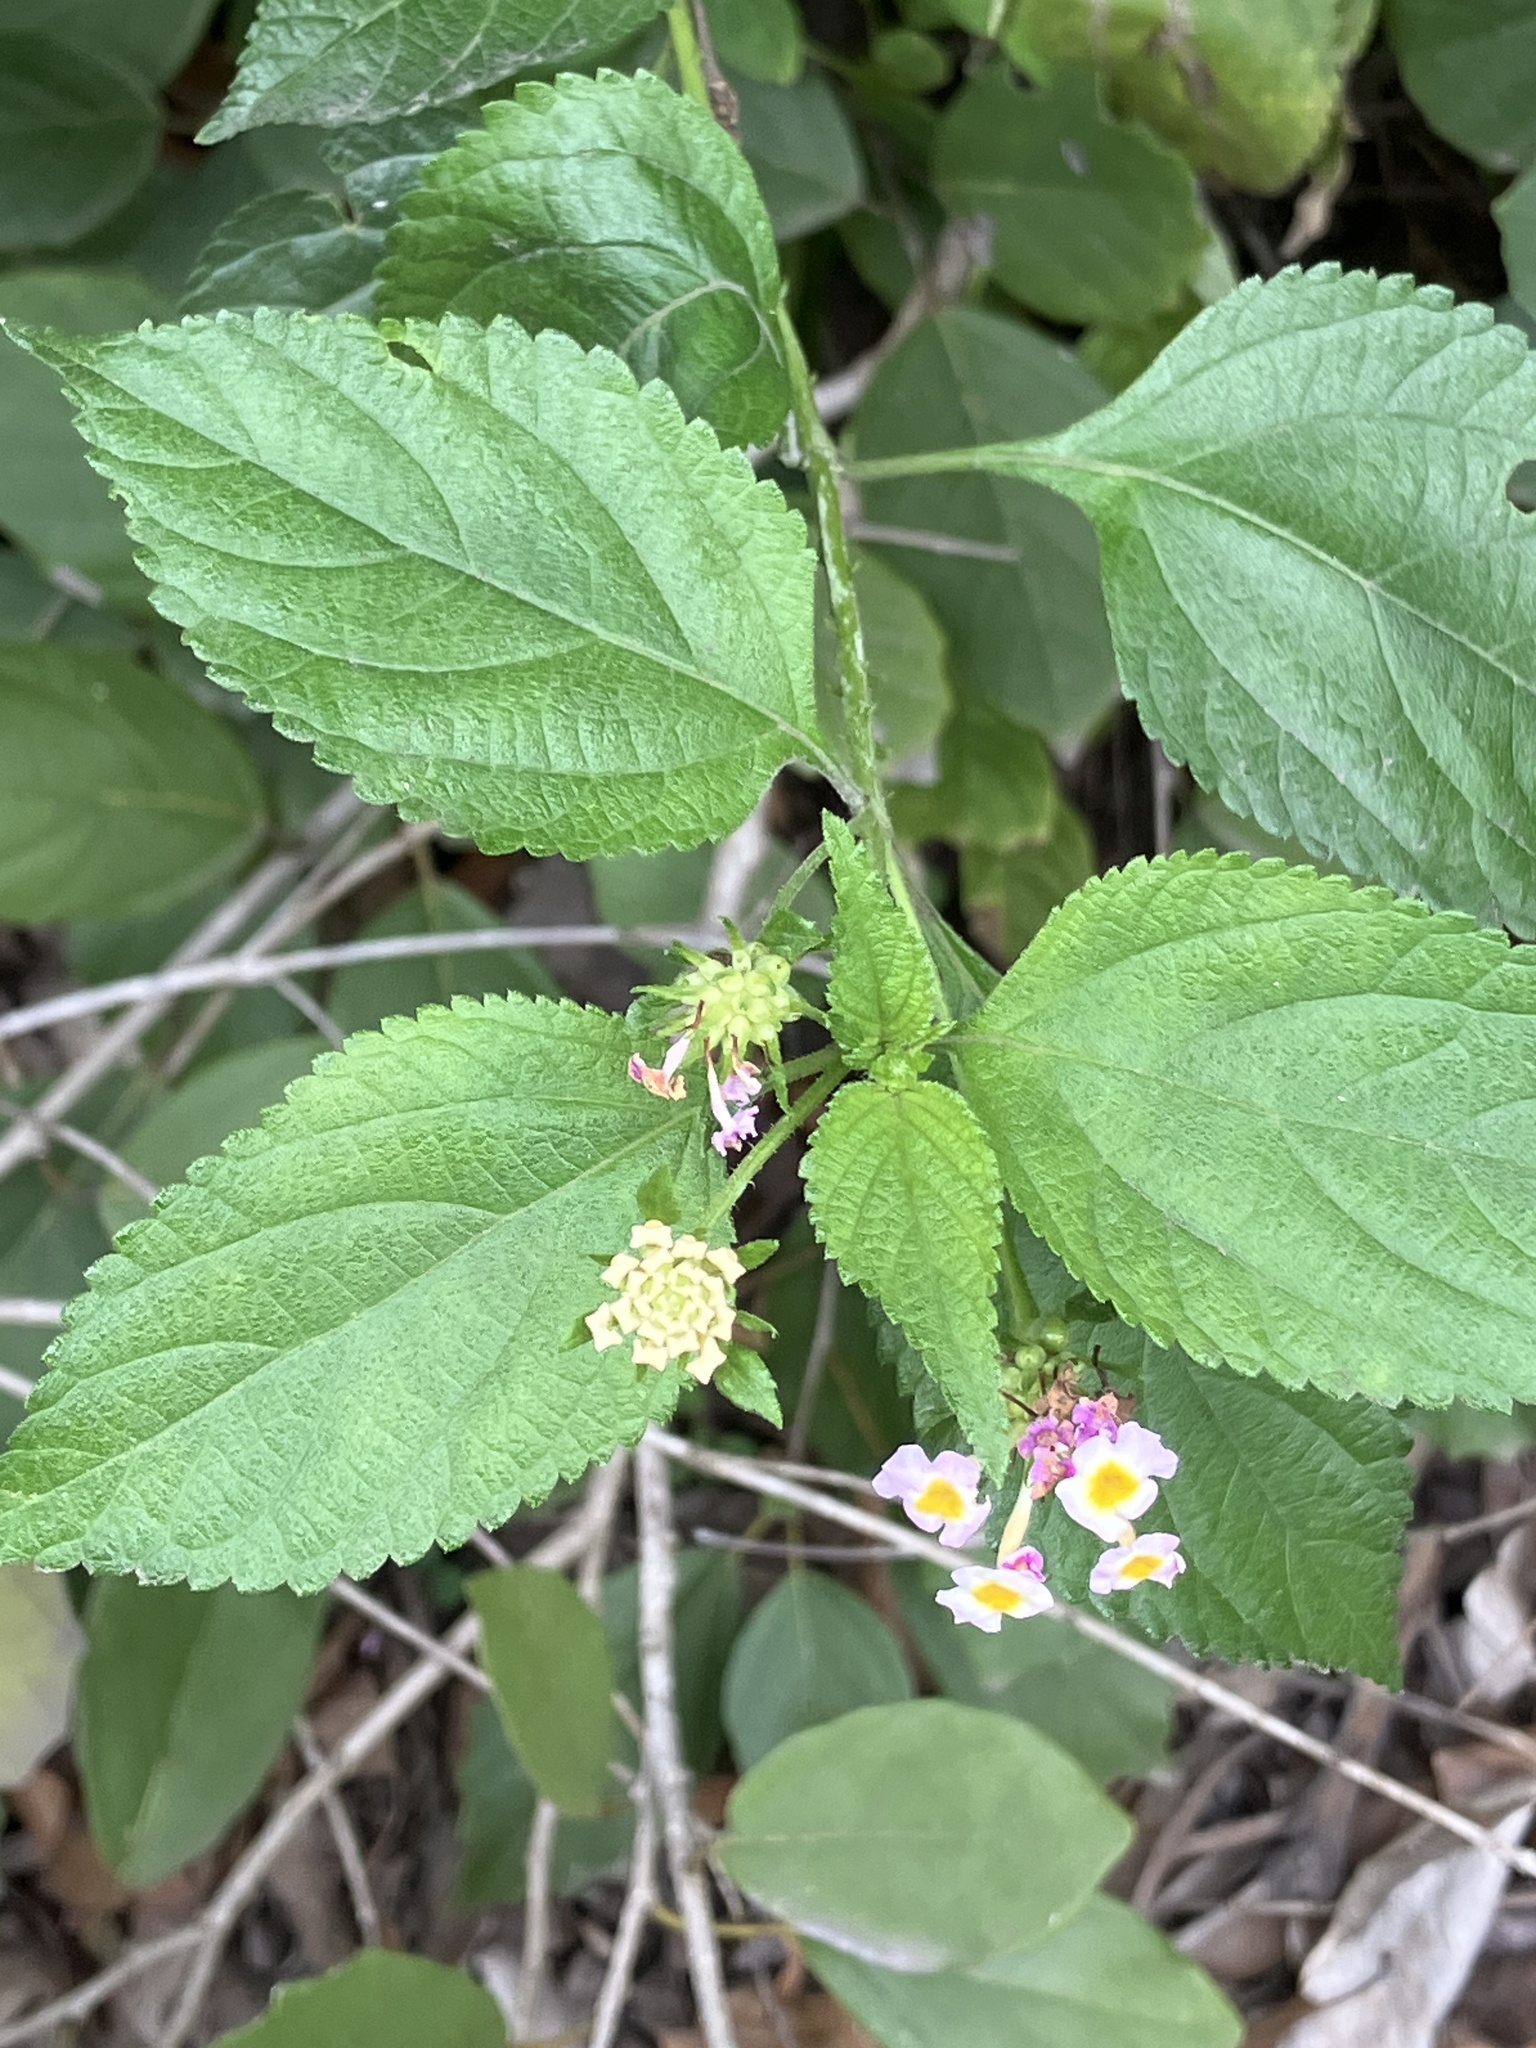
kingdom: Plantae
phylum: Tracheophyta
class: Magnoliopsida
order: Lamiales
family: Verbenaceae
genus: Lantana
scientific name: Lantana strigocamara
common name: Lantana
